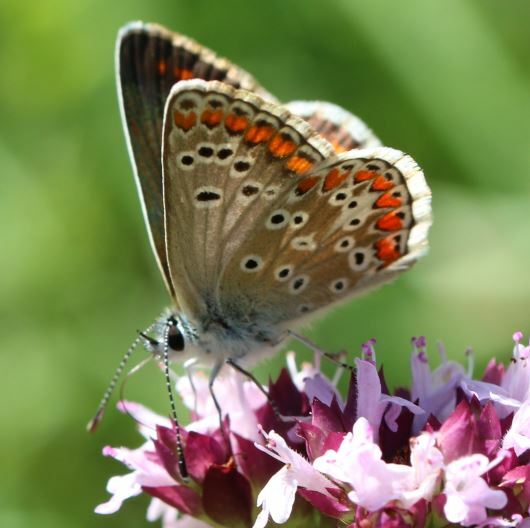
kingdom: Animalia
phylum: Arthropoda
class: Insecta
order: Lepidoptera
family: Lycaenidae
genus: Aricia
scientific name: Aricia agestis
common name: Brown argus
